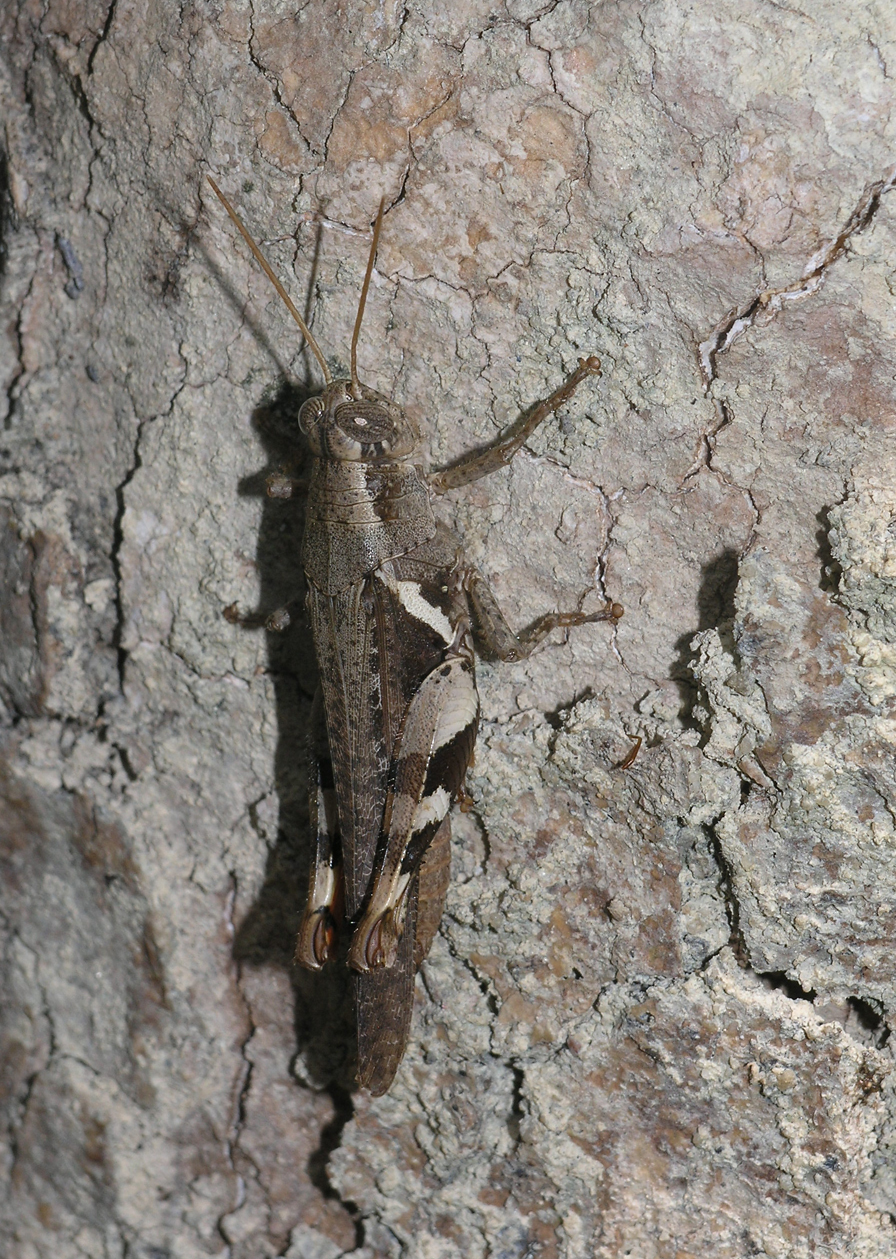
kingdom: Animalia
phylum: Arthropoda
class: Insecta
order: Orthoptera
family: Acrididae
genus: Xenocatantops
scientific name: Xenocatantops humile
